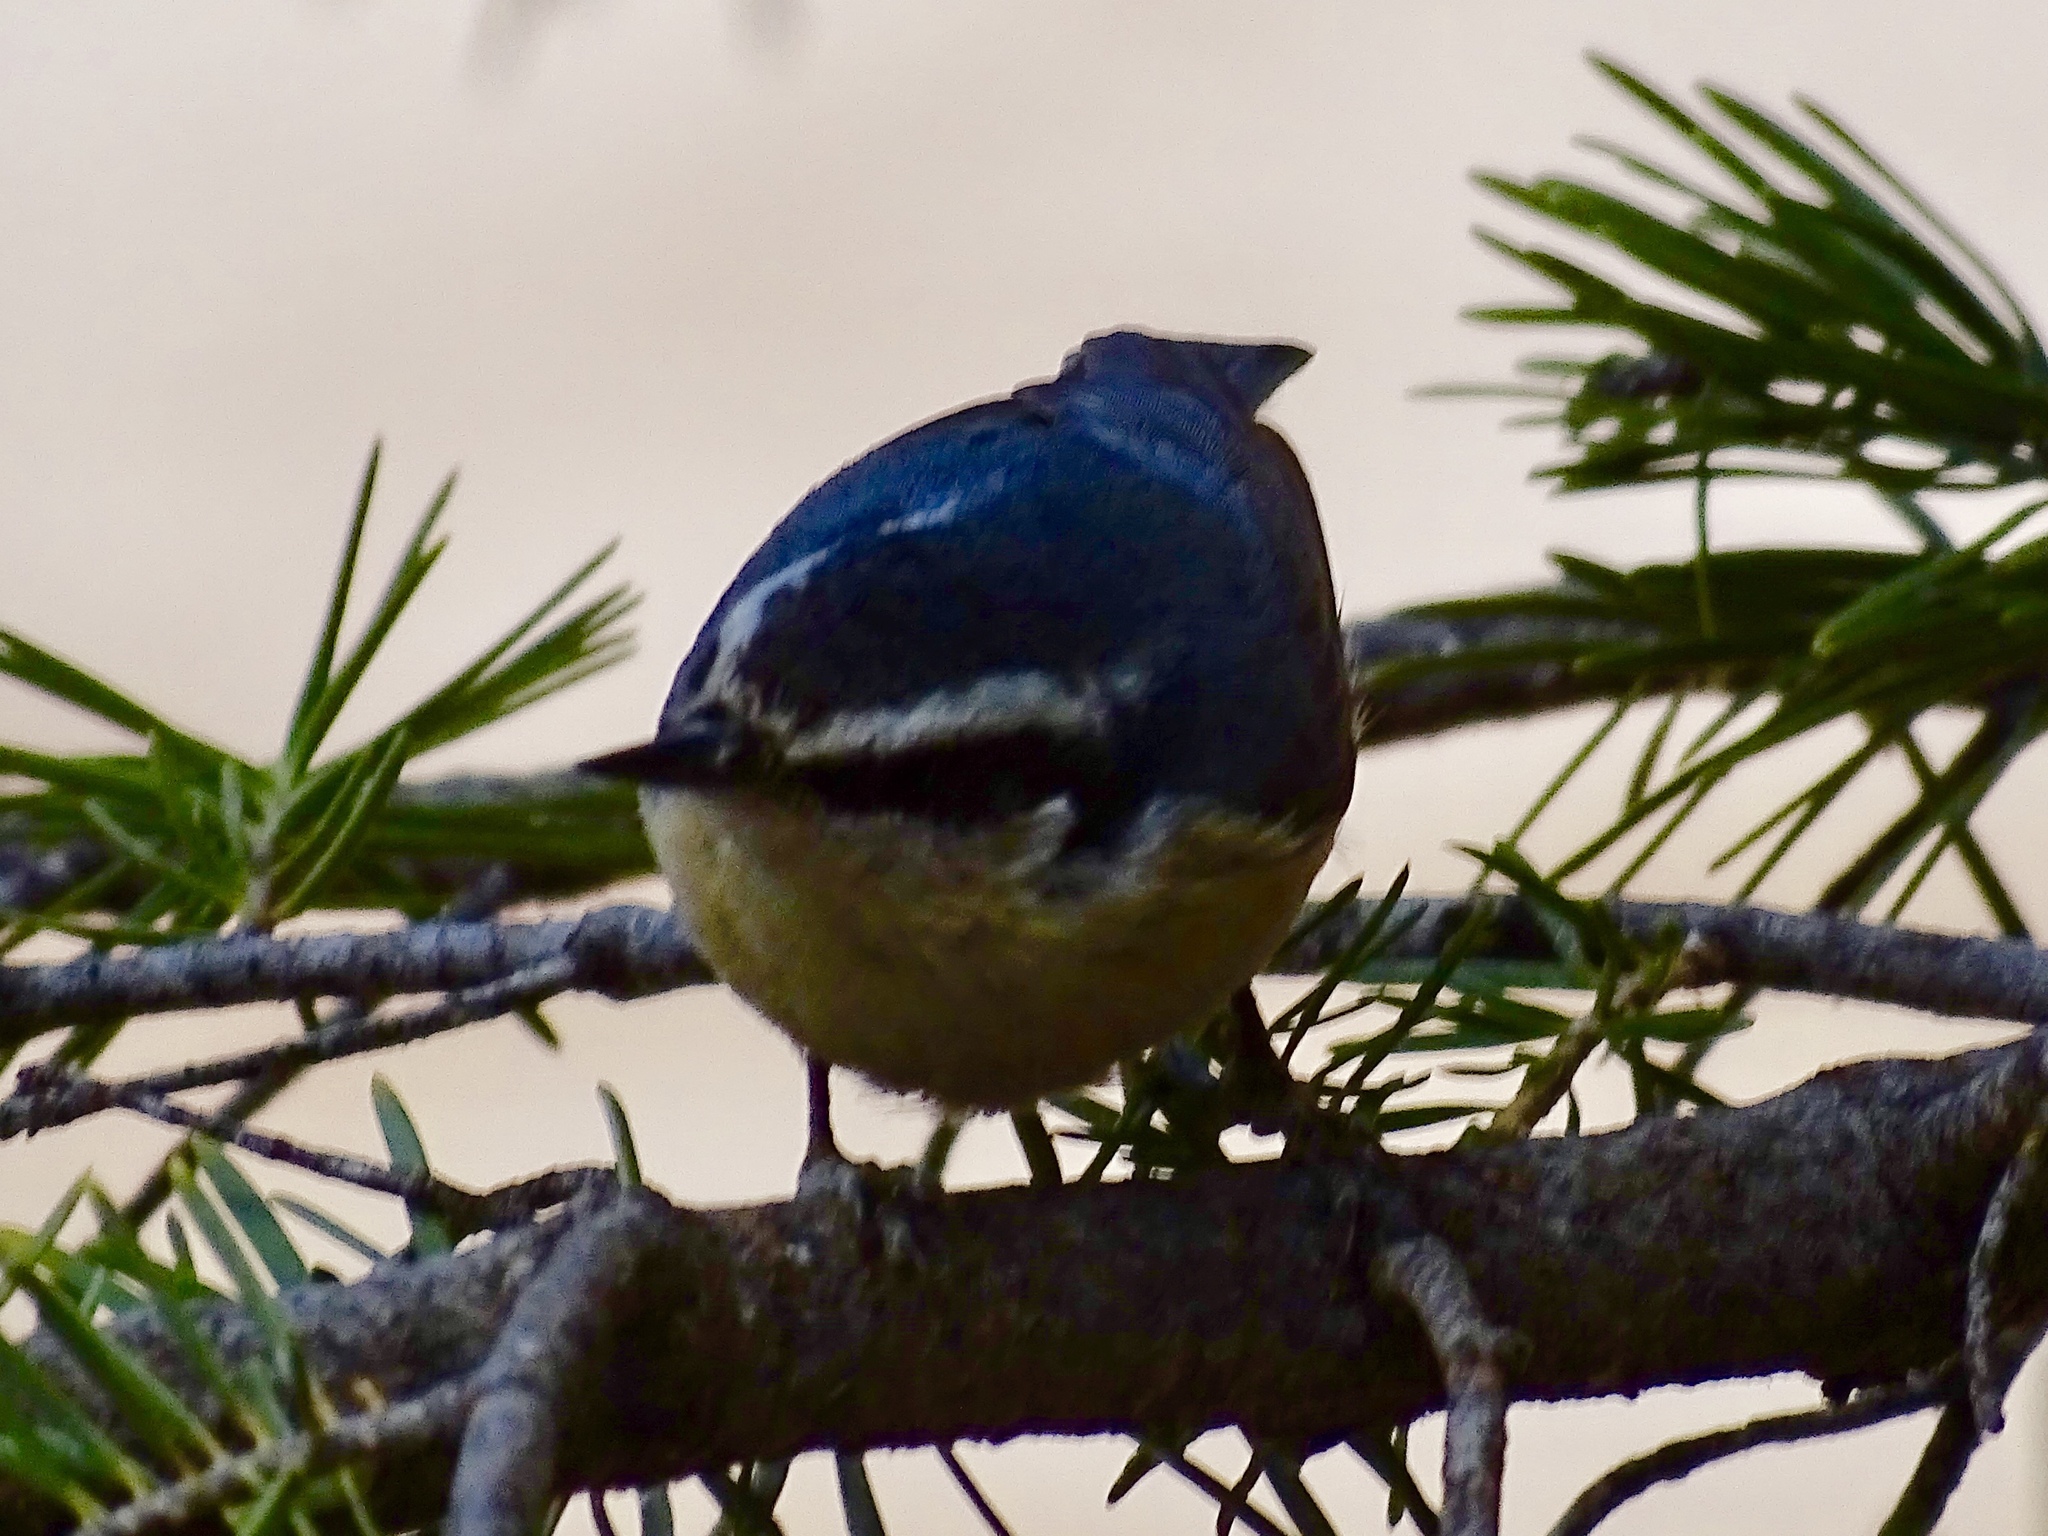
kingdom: Animalia
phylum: Chordata
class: Aves
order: Passeriformes
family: Sittidae
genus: Sitta
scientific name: Sitta canadensis
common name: Red-breasted nuthatch
